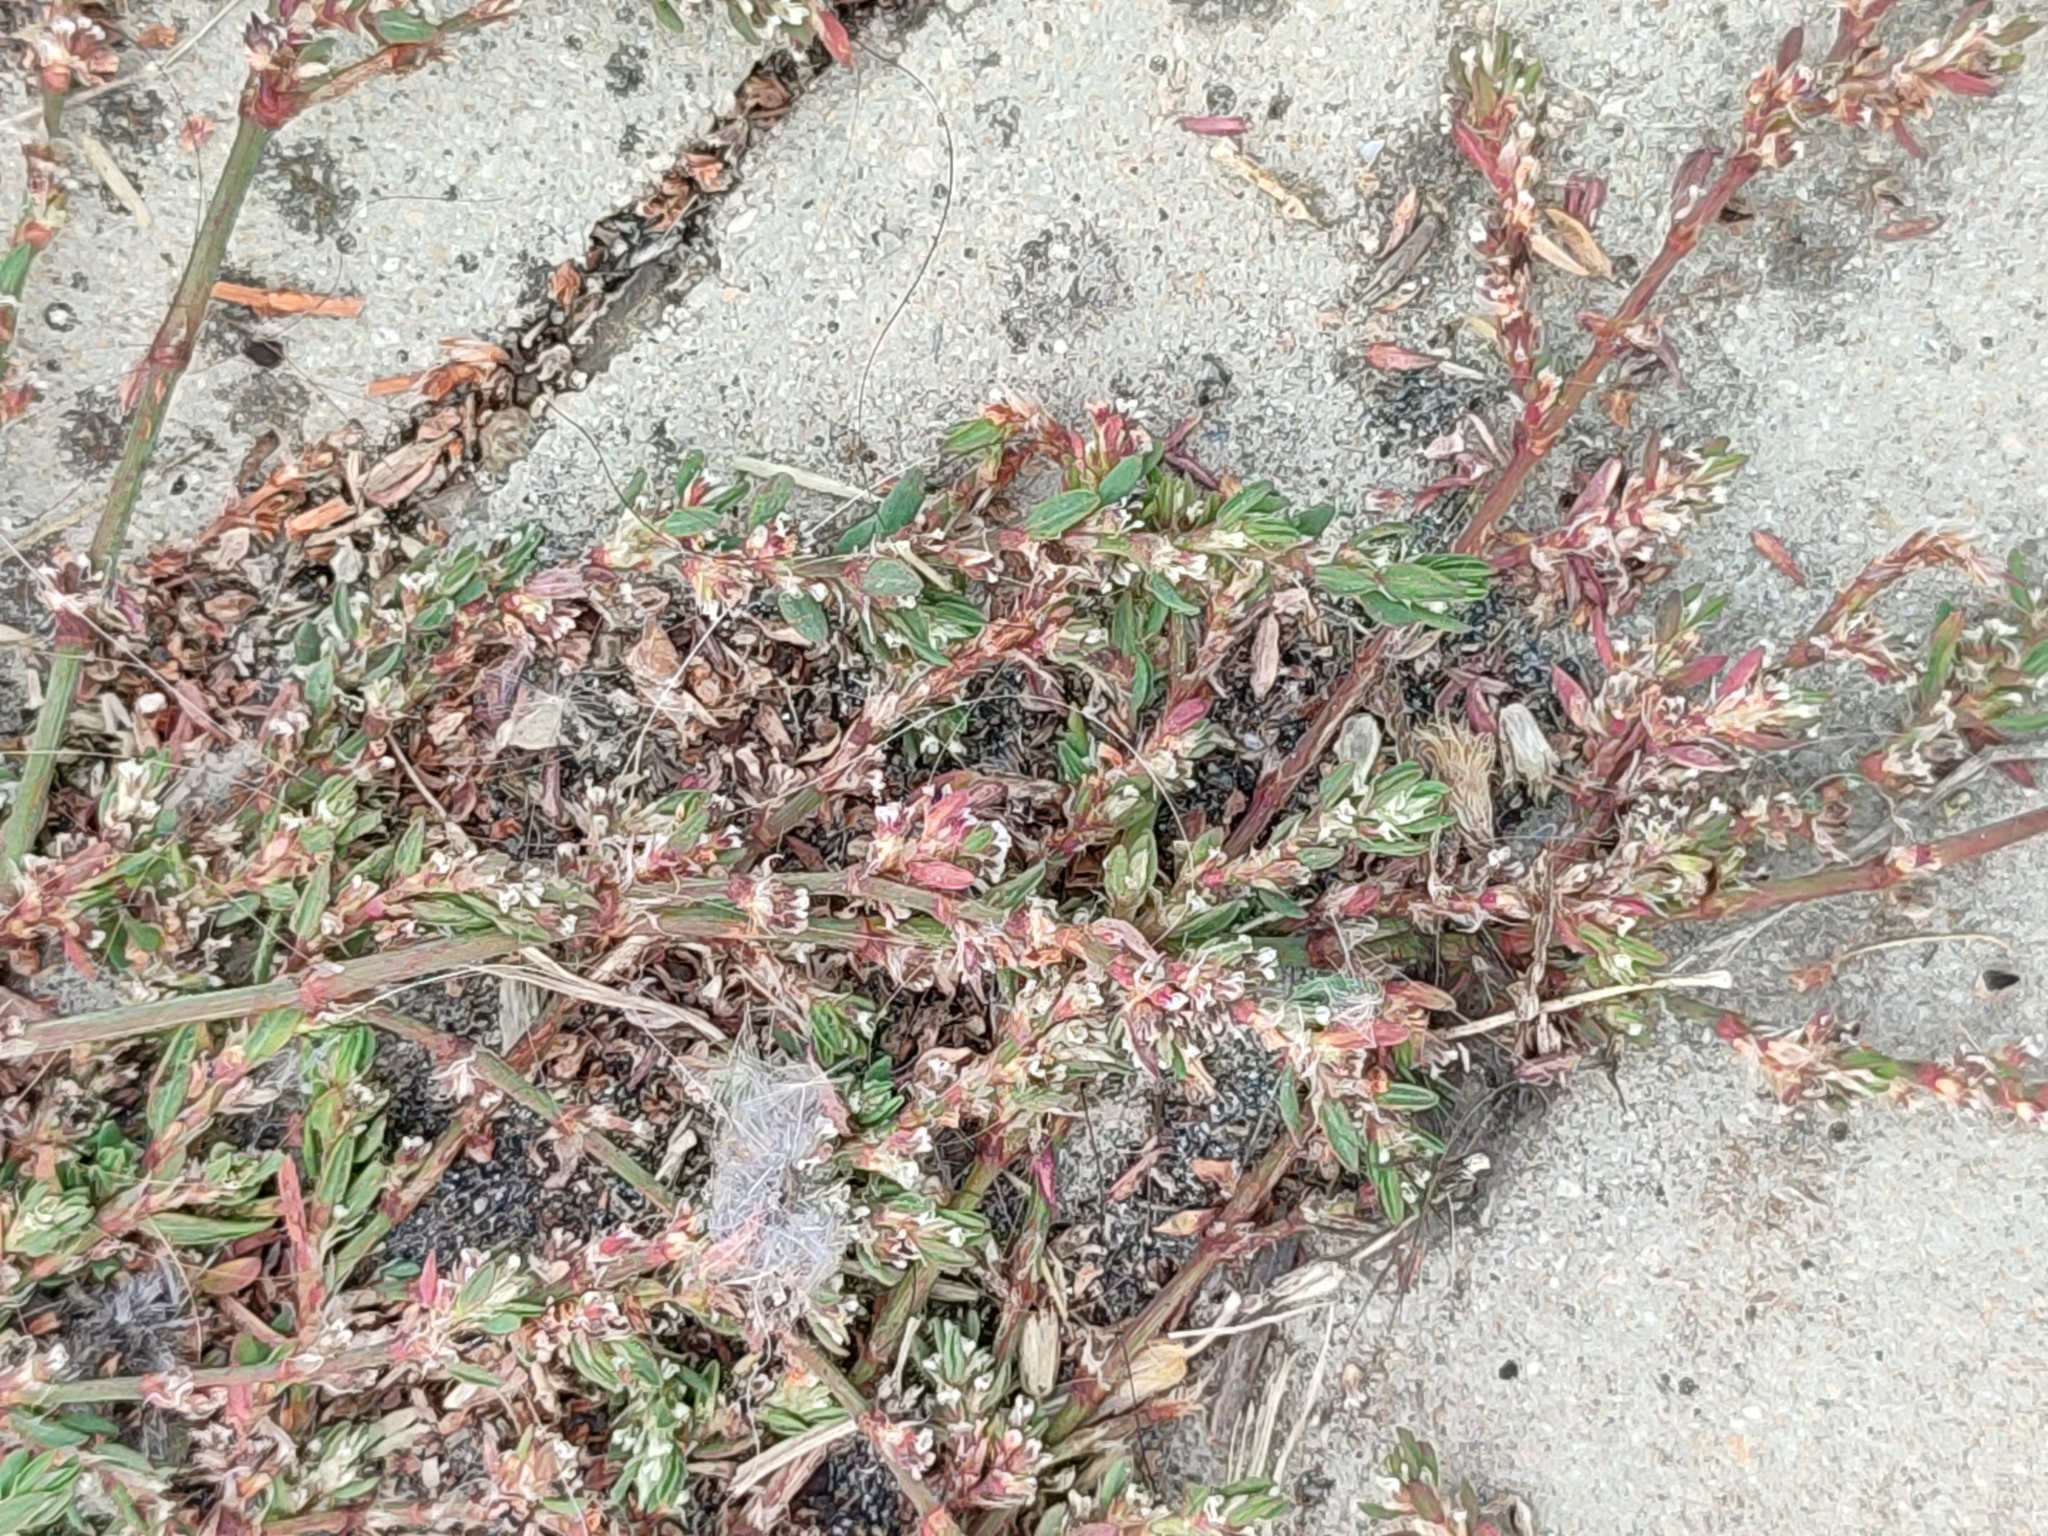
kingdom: Plantae
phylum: Tracheophyta
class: Magnoliopsida
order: Caryophyllales
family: Polygonaceae
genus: Polygonum
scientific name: Polygonum aviculare
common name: Prostrate knotweed
